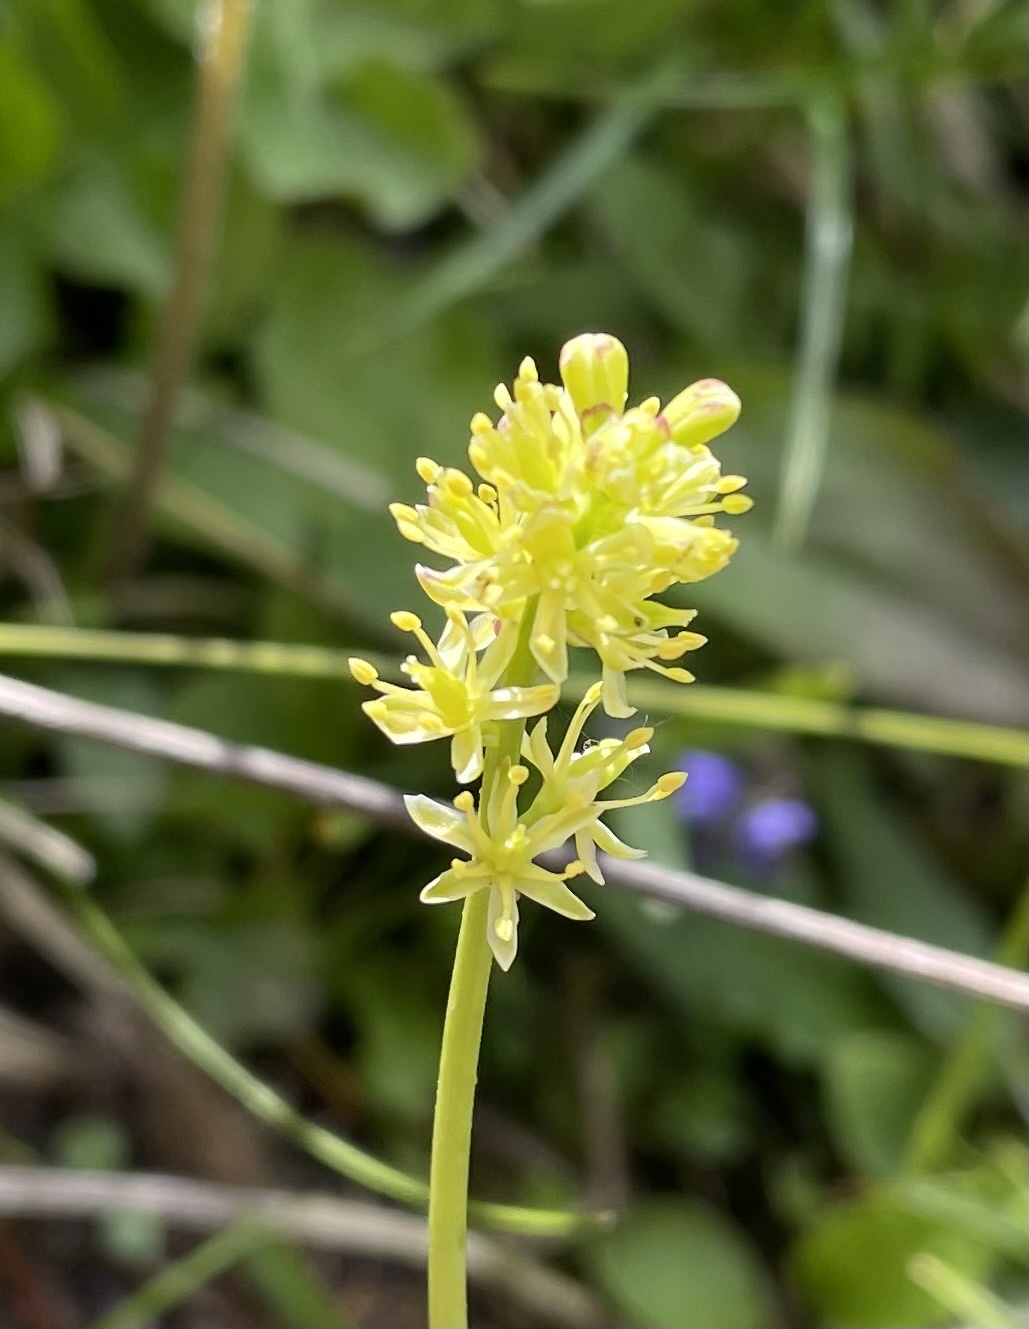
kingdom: Plantae
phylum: Tracheophyta
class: Liliopsida
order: Alismatales
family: Tofieldiaceae
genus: Tofieldia
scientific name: Tofieldia calyculata
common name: German-asphodel
